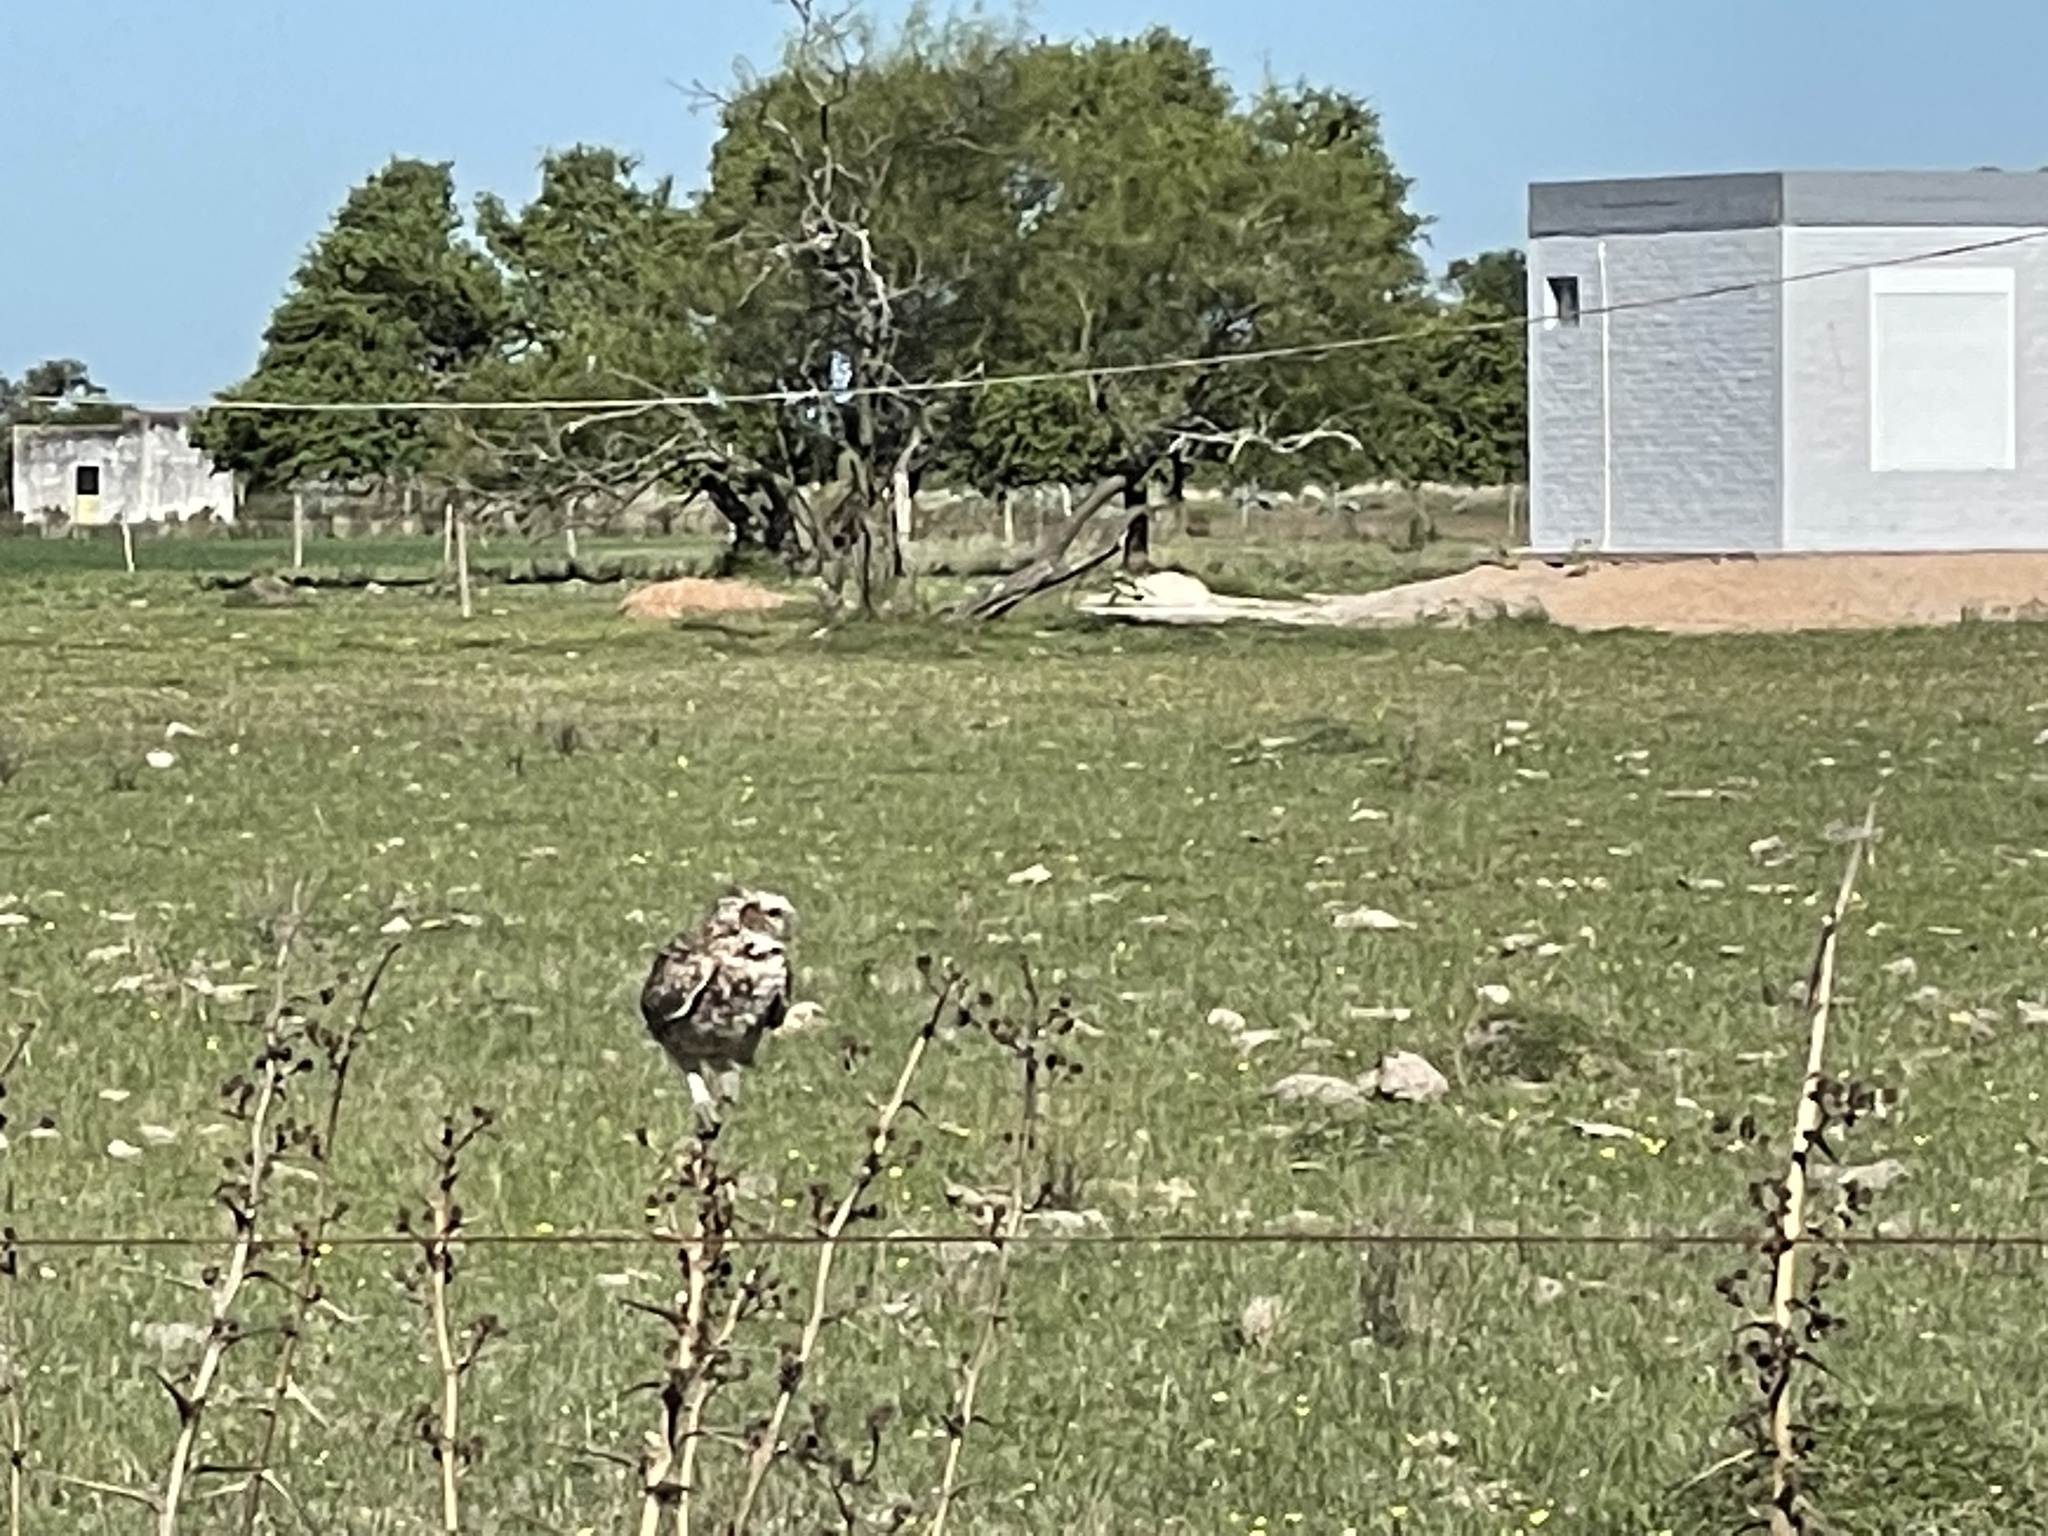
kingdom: Animalia
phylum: Chordata
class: Aves
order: Strigiformes
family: Strigidae
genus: Athene
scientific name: Athene cunicularia
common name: Burrowing owl
